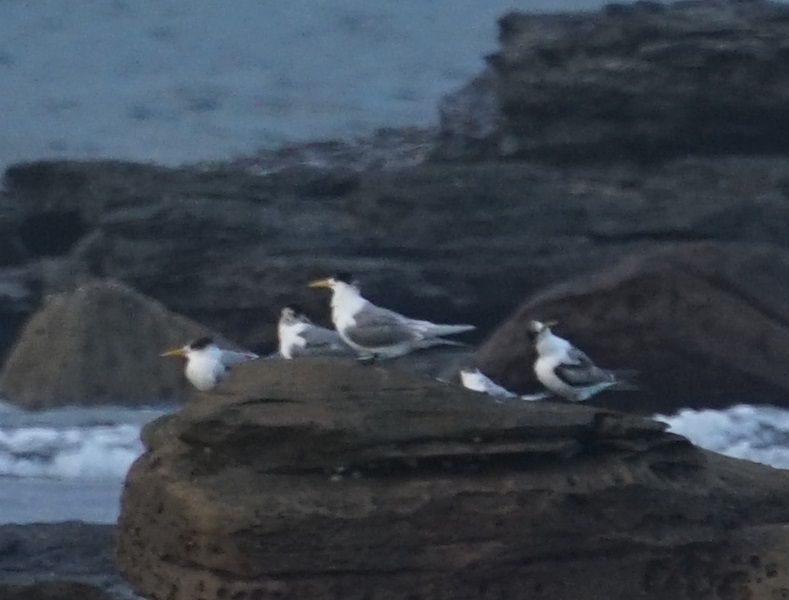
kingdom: Animalia
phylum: Chordata
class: Aves
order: Charadriiformes
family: Laridae
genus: Thalasseus
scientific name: Thalasseus bergii
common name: Greater crested tern
